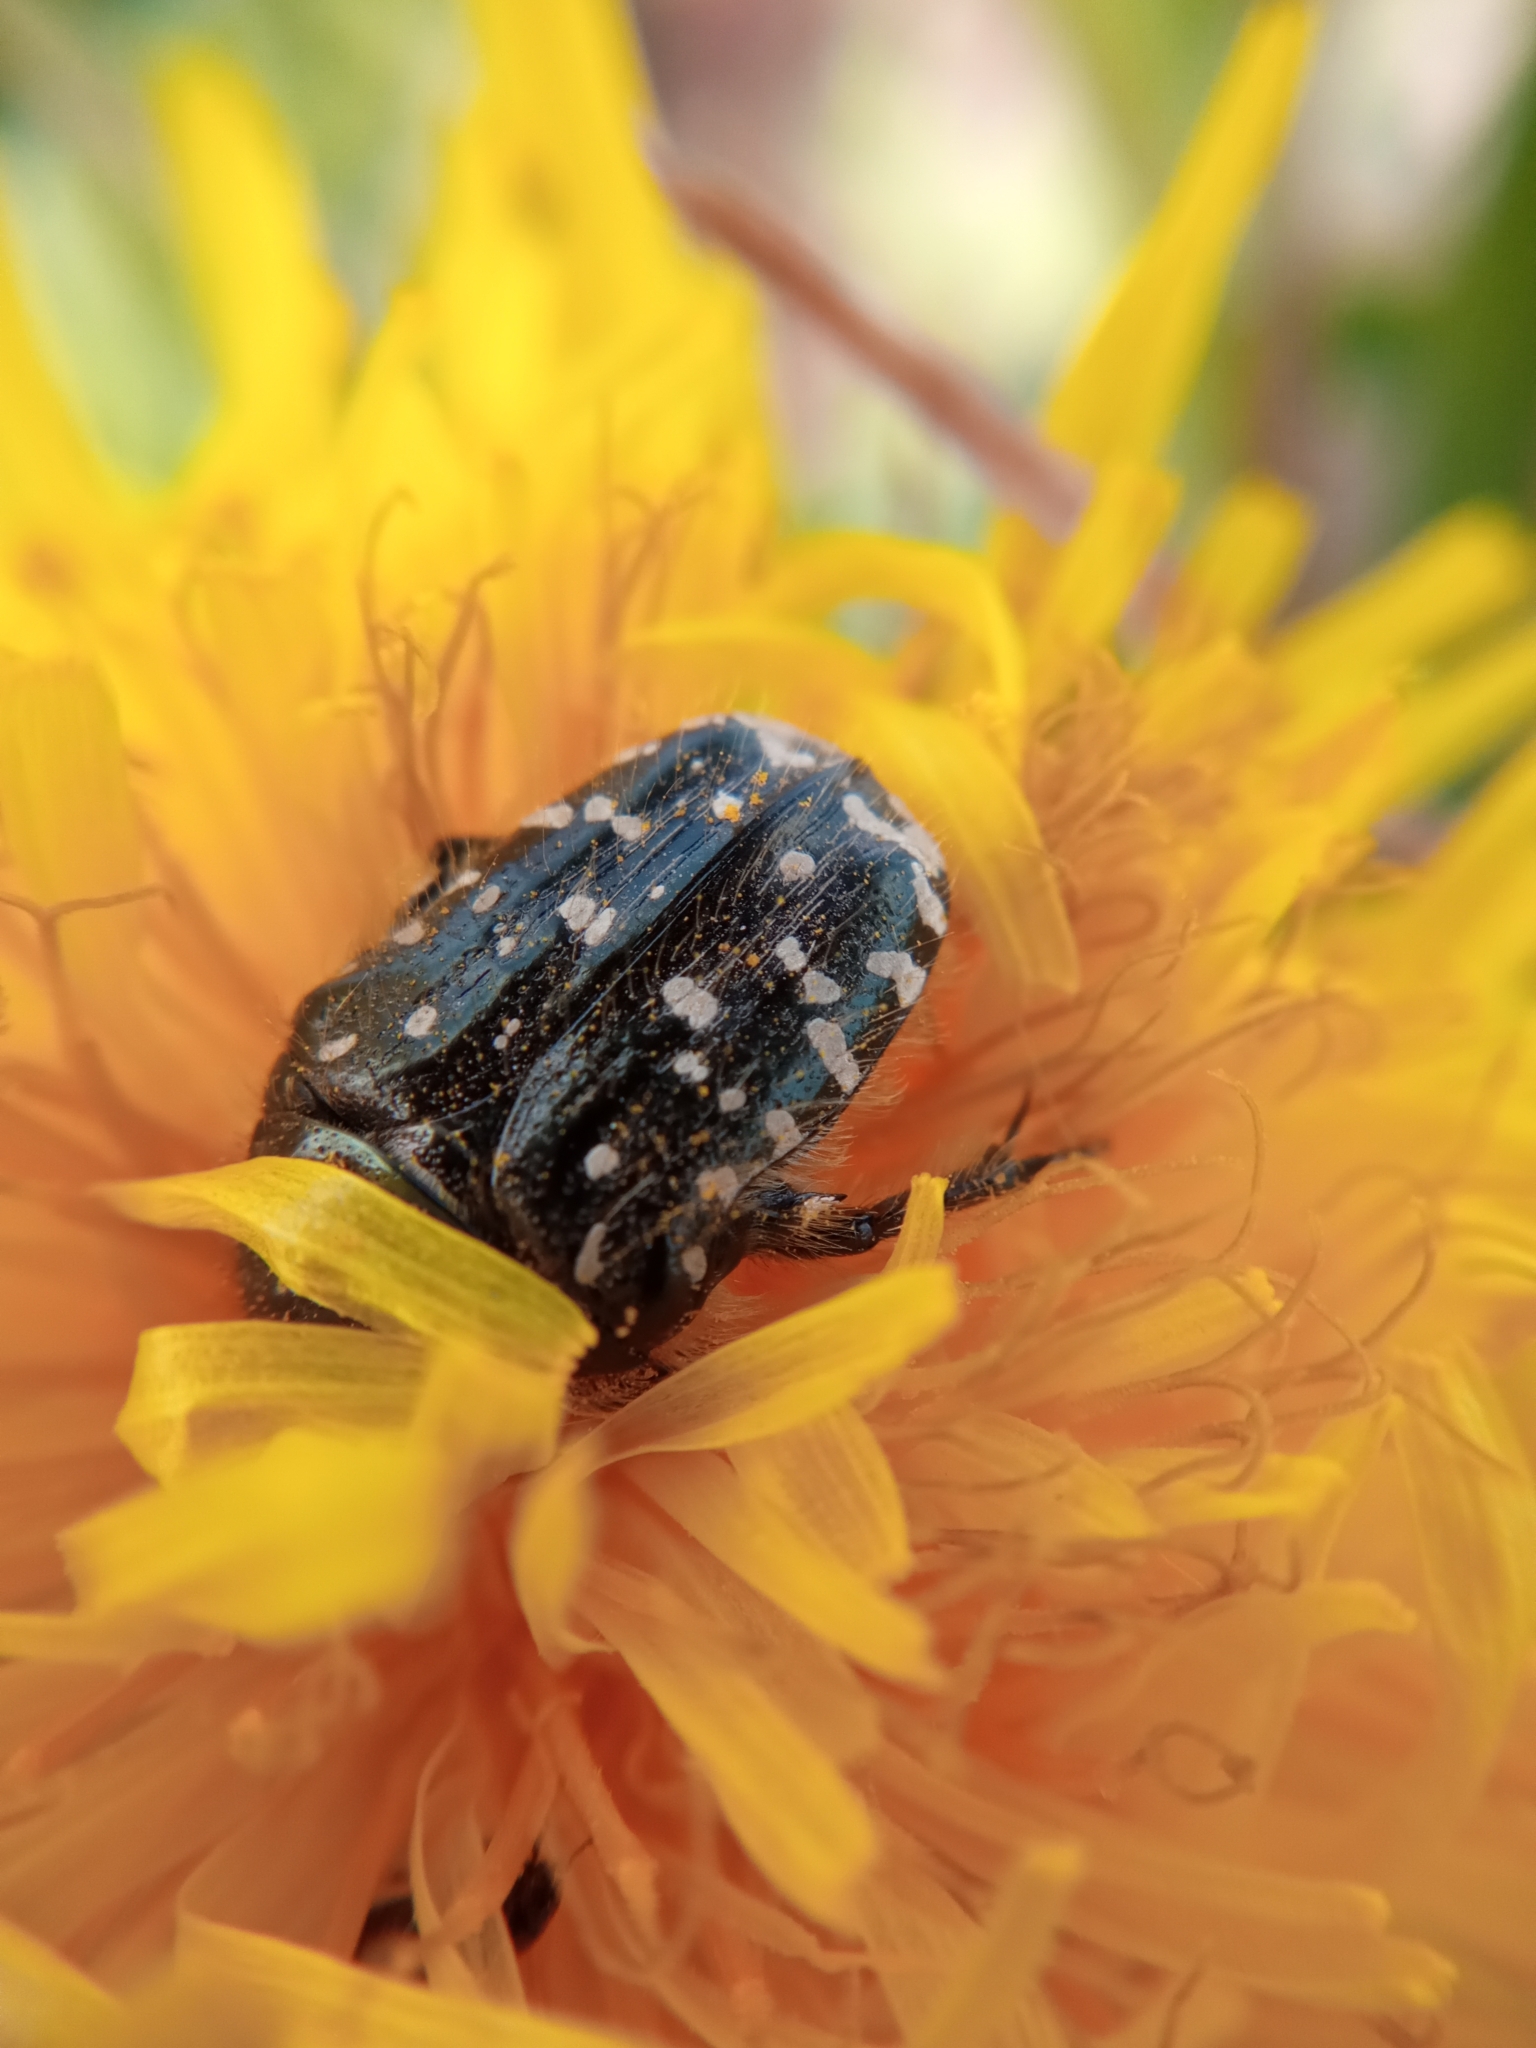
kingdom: Animalia
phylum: Arthropoda
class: Insecta
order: Coleoptera
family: Scarabaeidae
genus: Oxythyrea
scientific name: Oxythyrea funesta
